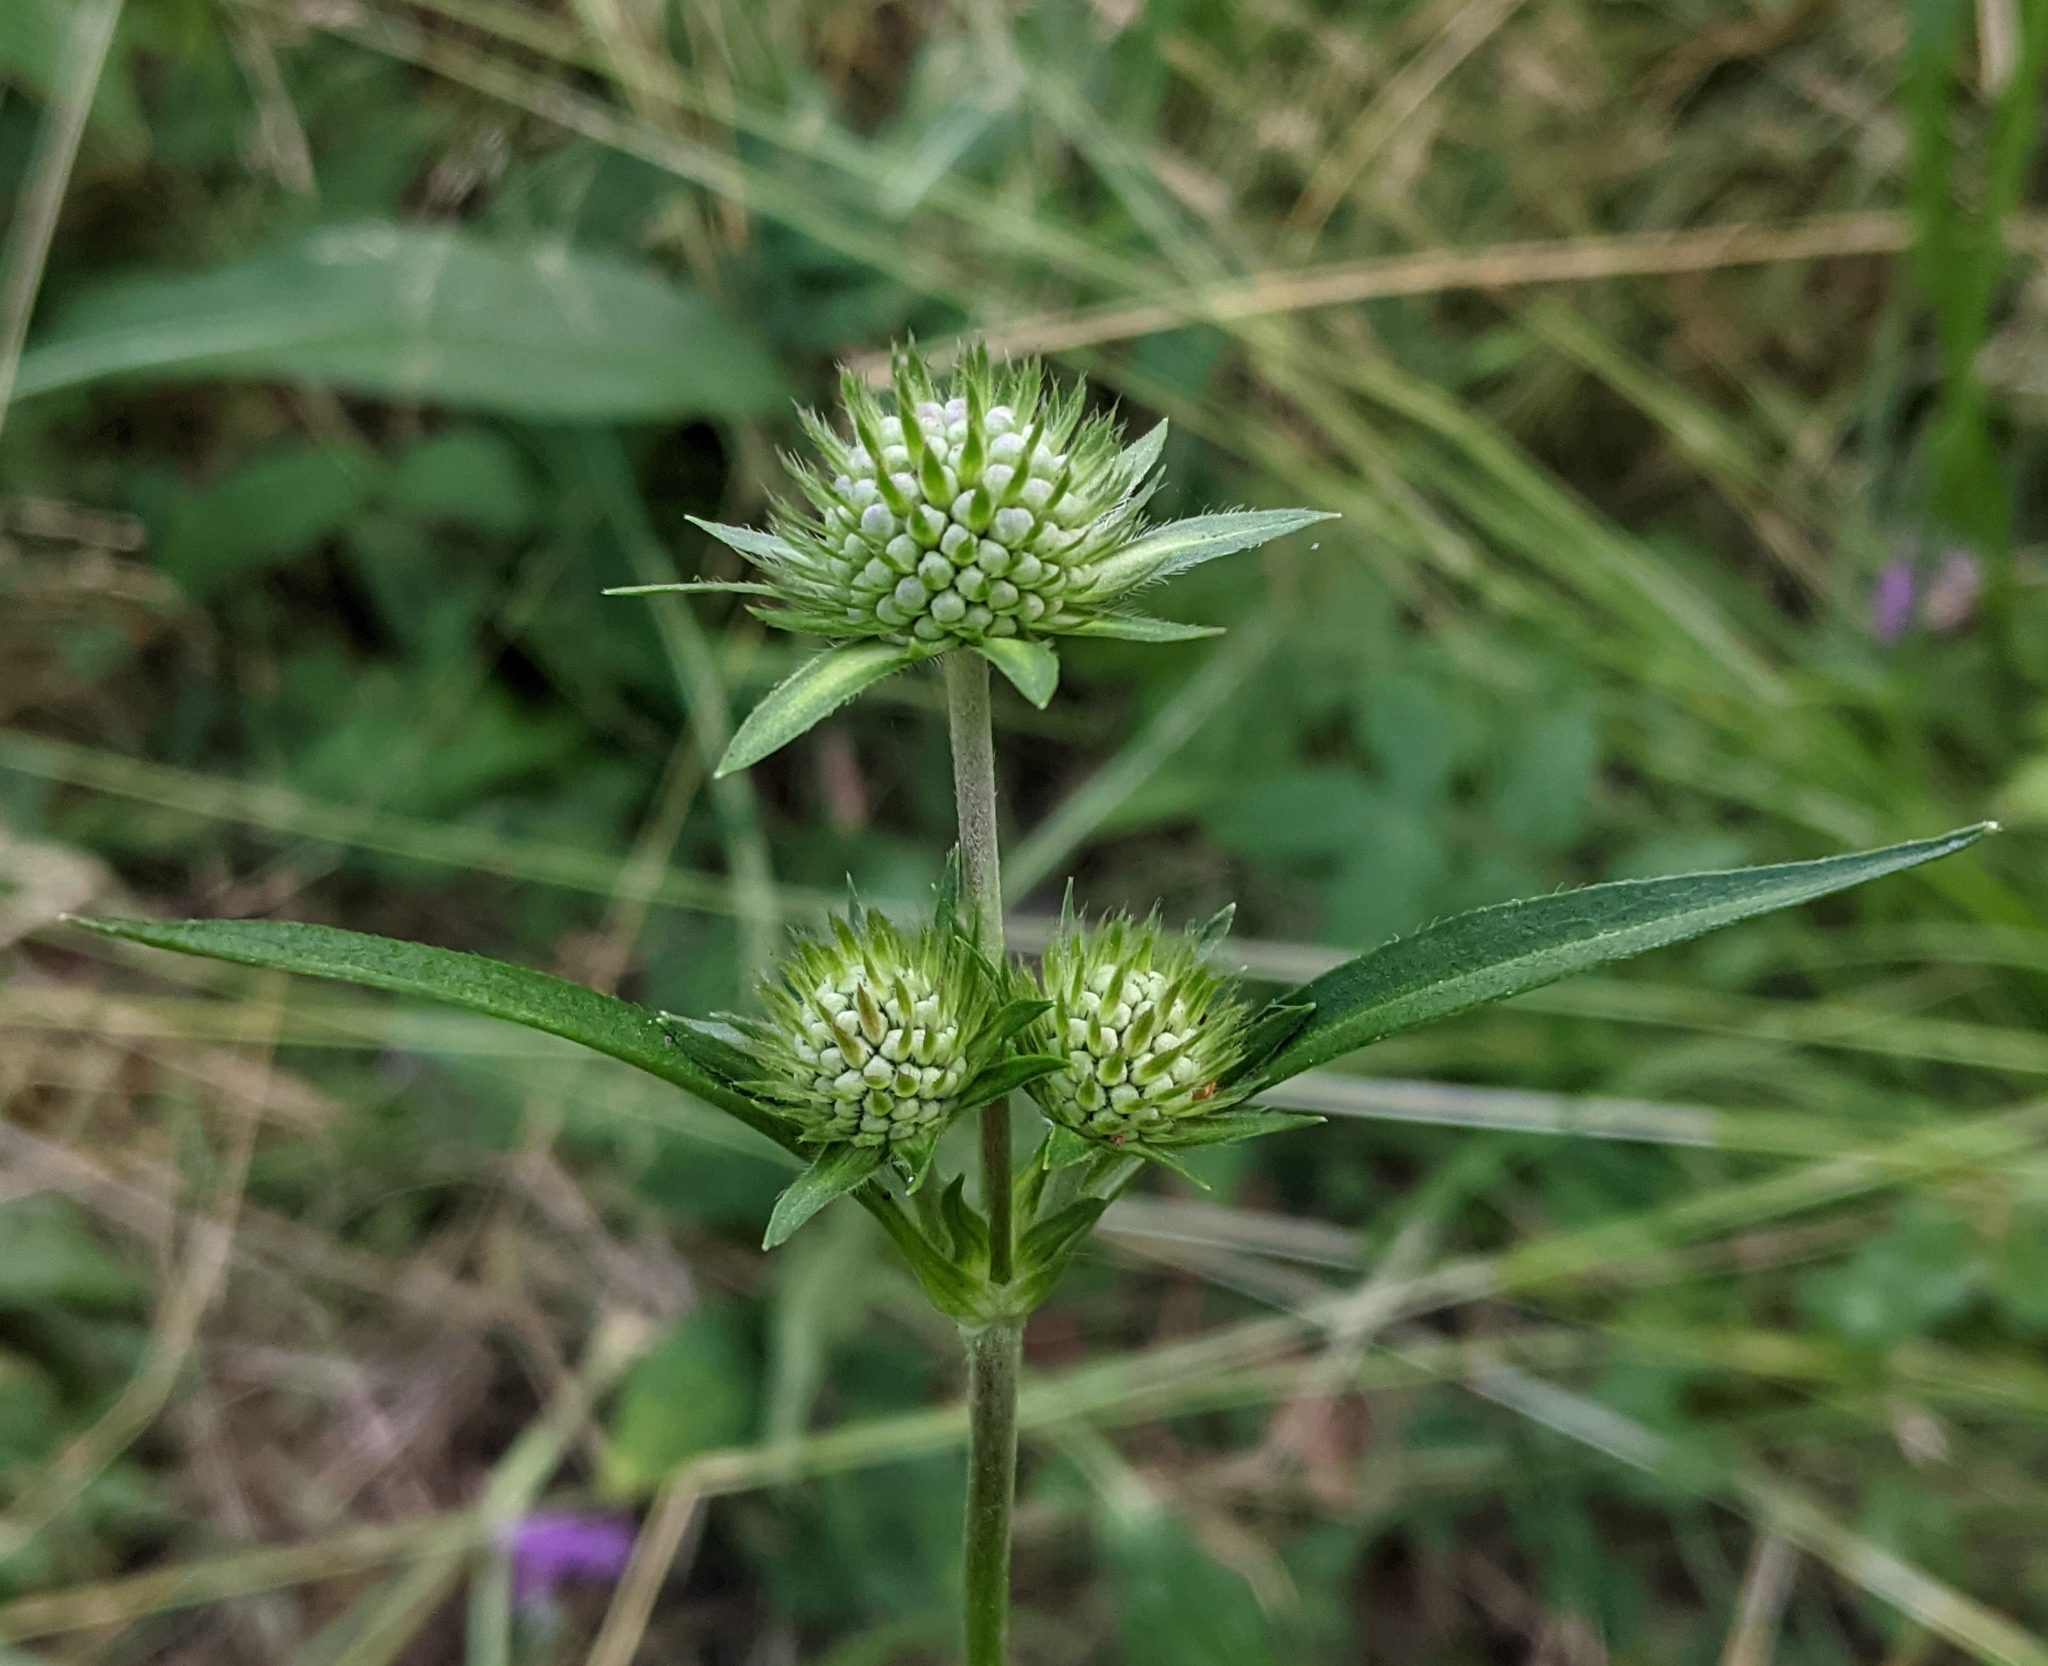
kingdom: Plantae
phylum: Tracheophyta
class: Magnoliopsida
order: Dipsacales
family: Caprifoliaceae
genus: Succisa
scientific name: Succisa pratensis
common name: Devil's-bit
